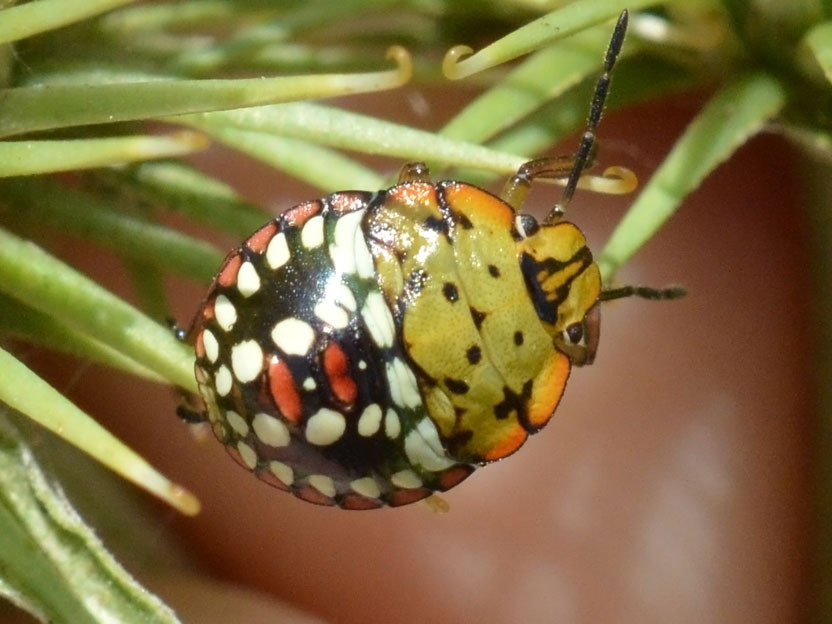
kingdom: Animalia
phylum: Arthropoda
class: Insecta
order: Hemiptera
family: Pentatomidae
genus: Nezara
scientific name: Nezara viridula
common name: Southern green stink bug
